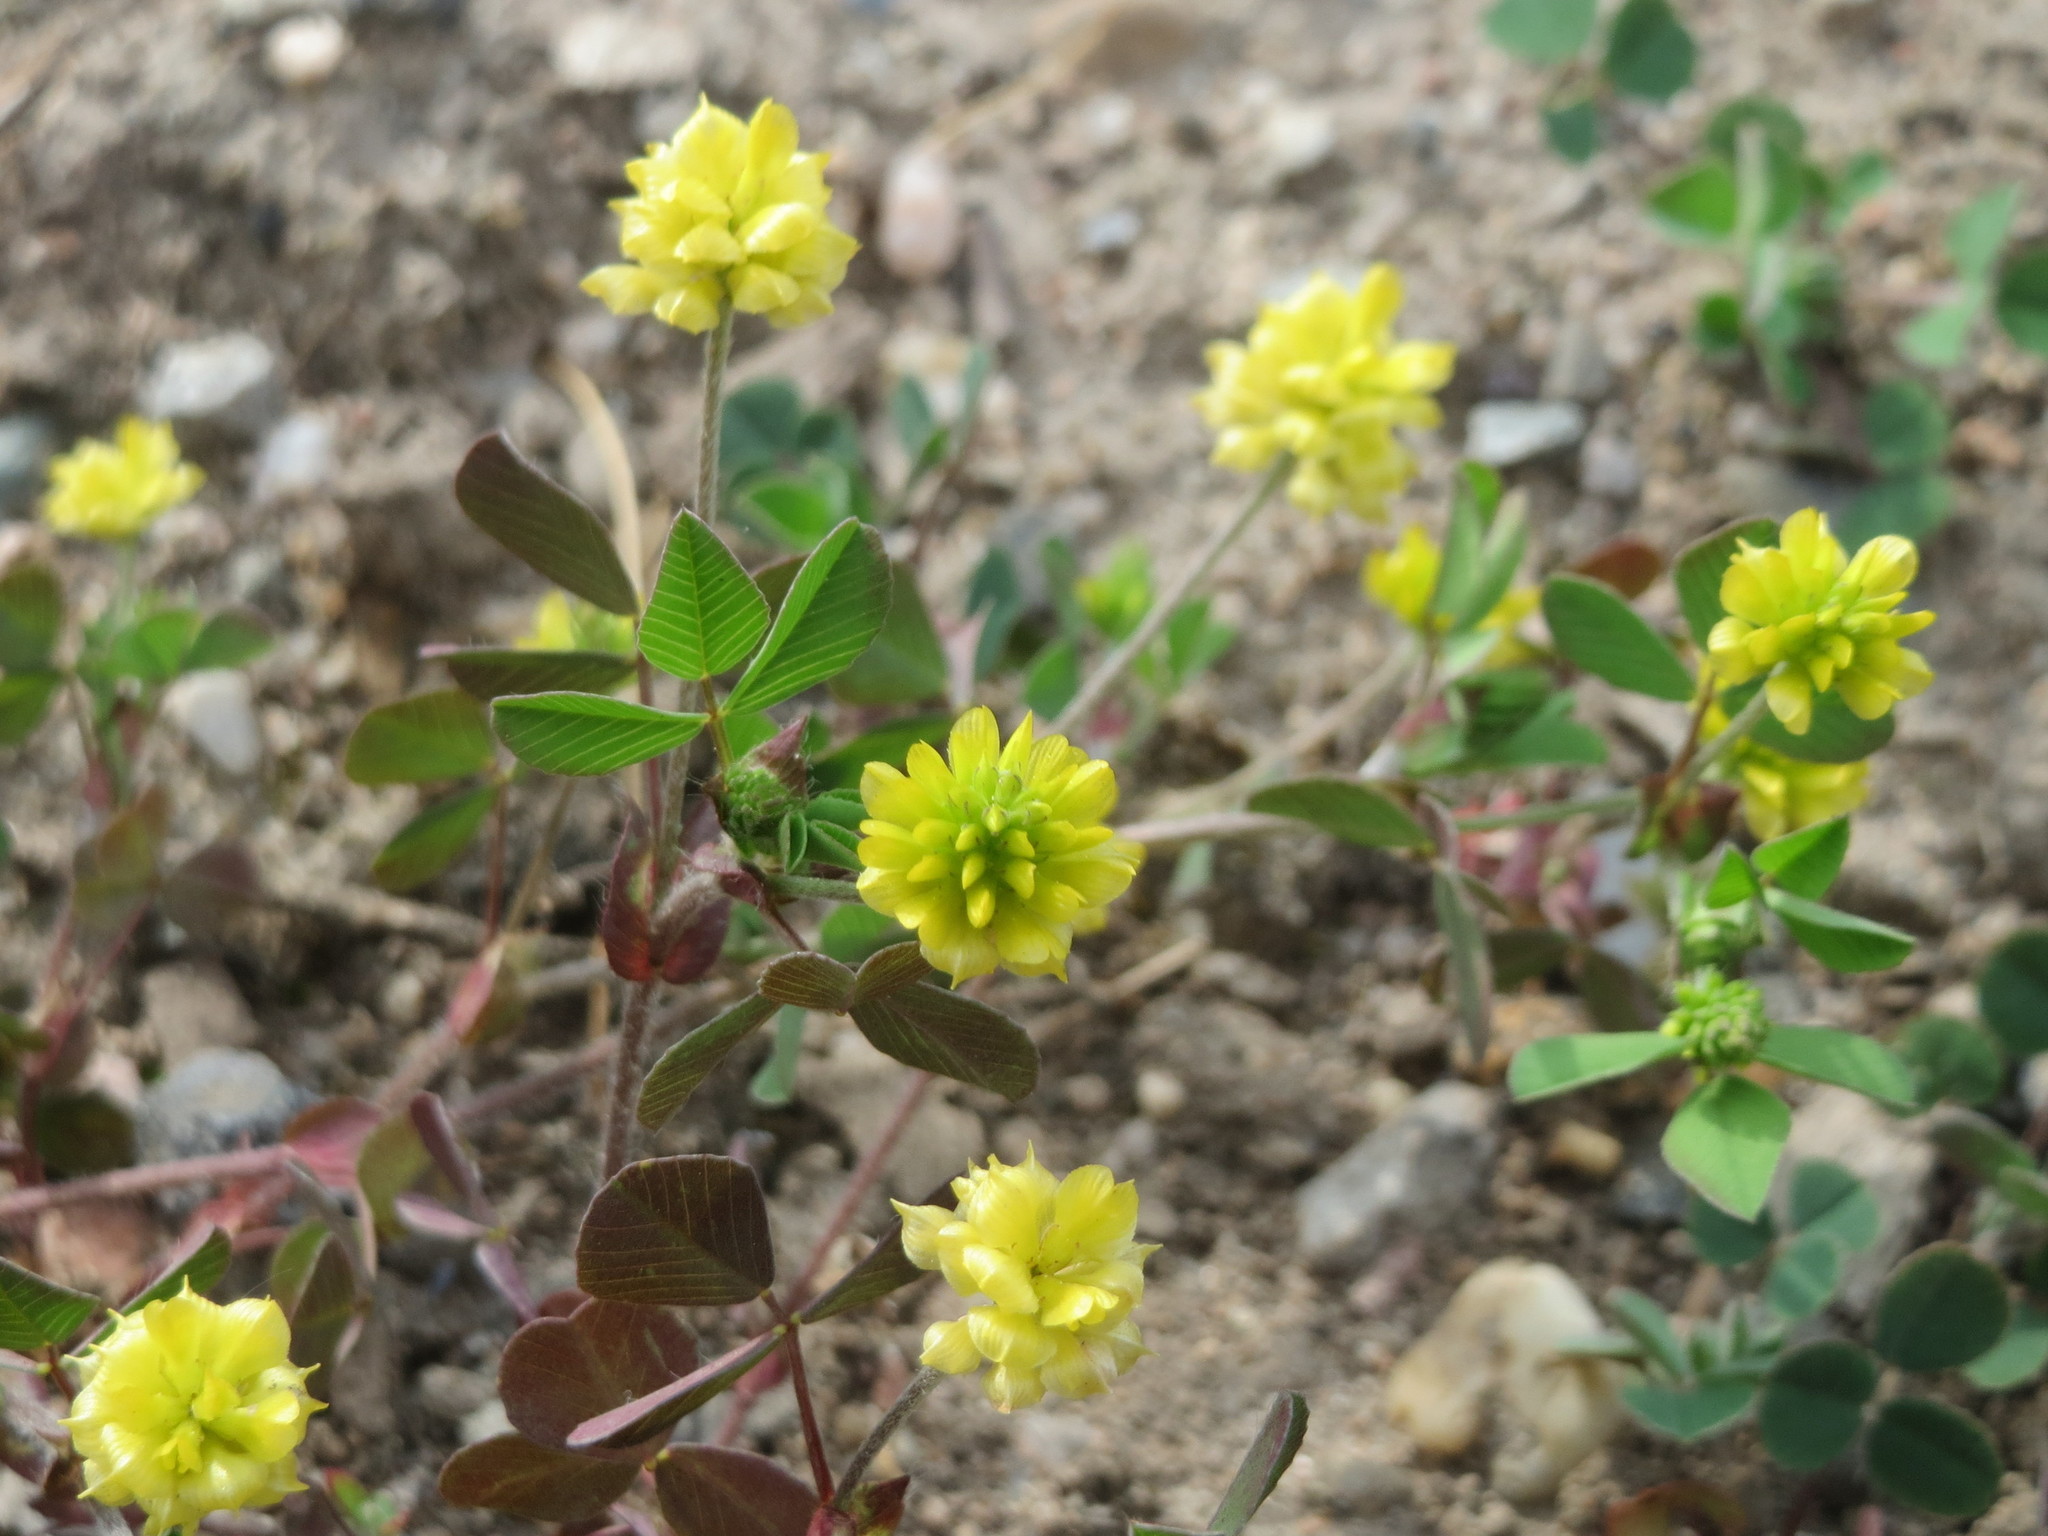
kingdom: Plantae
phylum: Tracheophyta
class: Magnoliopsida
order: Fabales
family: Fabaceae
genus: Trifolium
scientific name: Trifolium campestre
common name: Field clover
